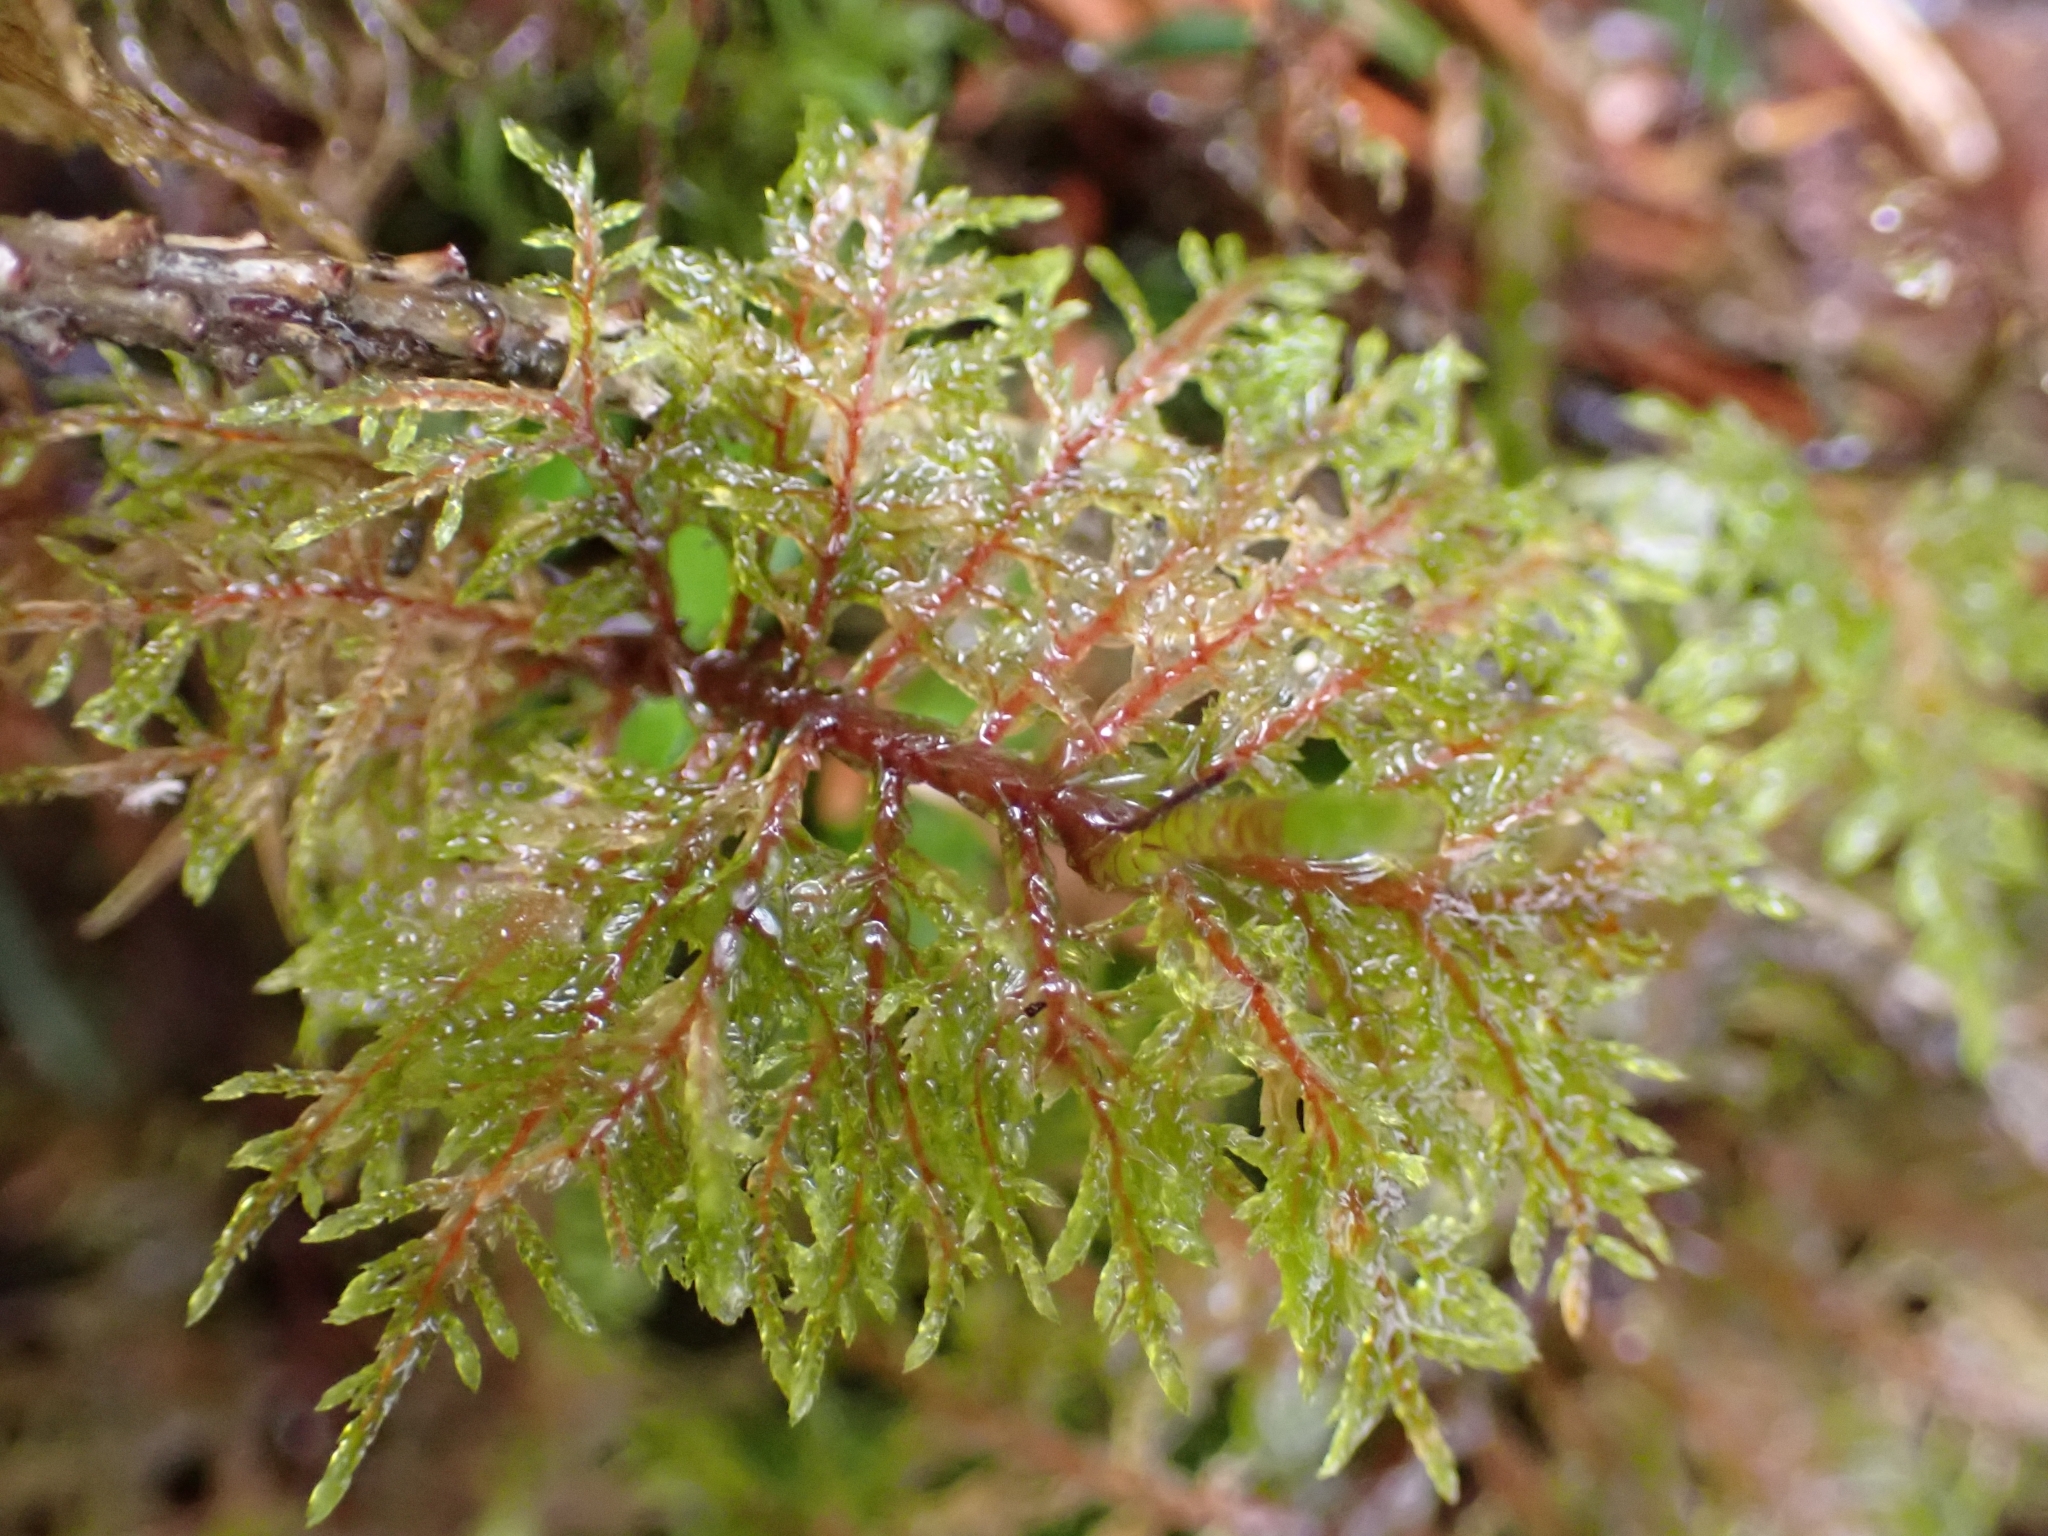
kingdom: Plantae
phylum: Bryophyta
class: Bryopsida
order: Hypnales
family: Hylocomiaceae
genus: Hylocomium
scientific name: Hylocomium splendens
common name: Stairstep moss
